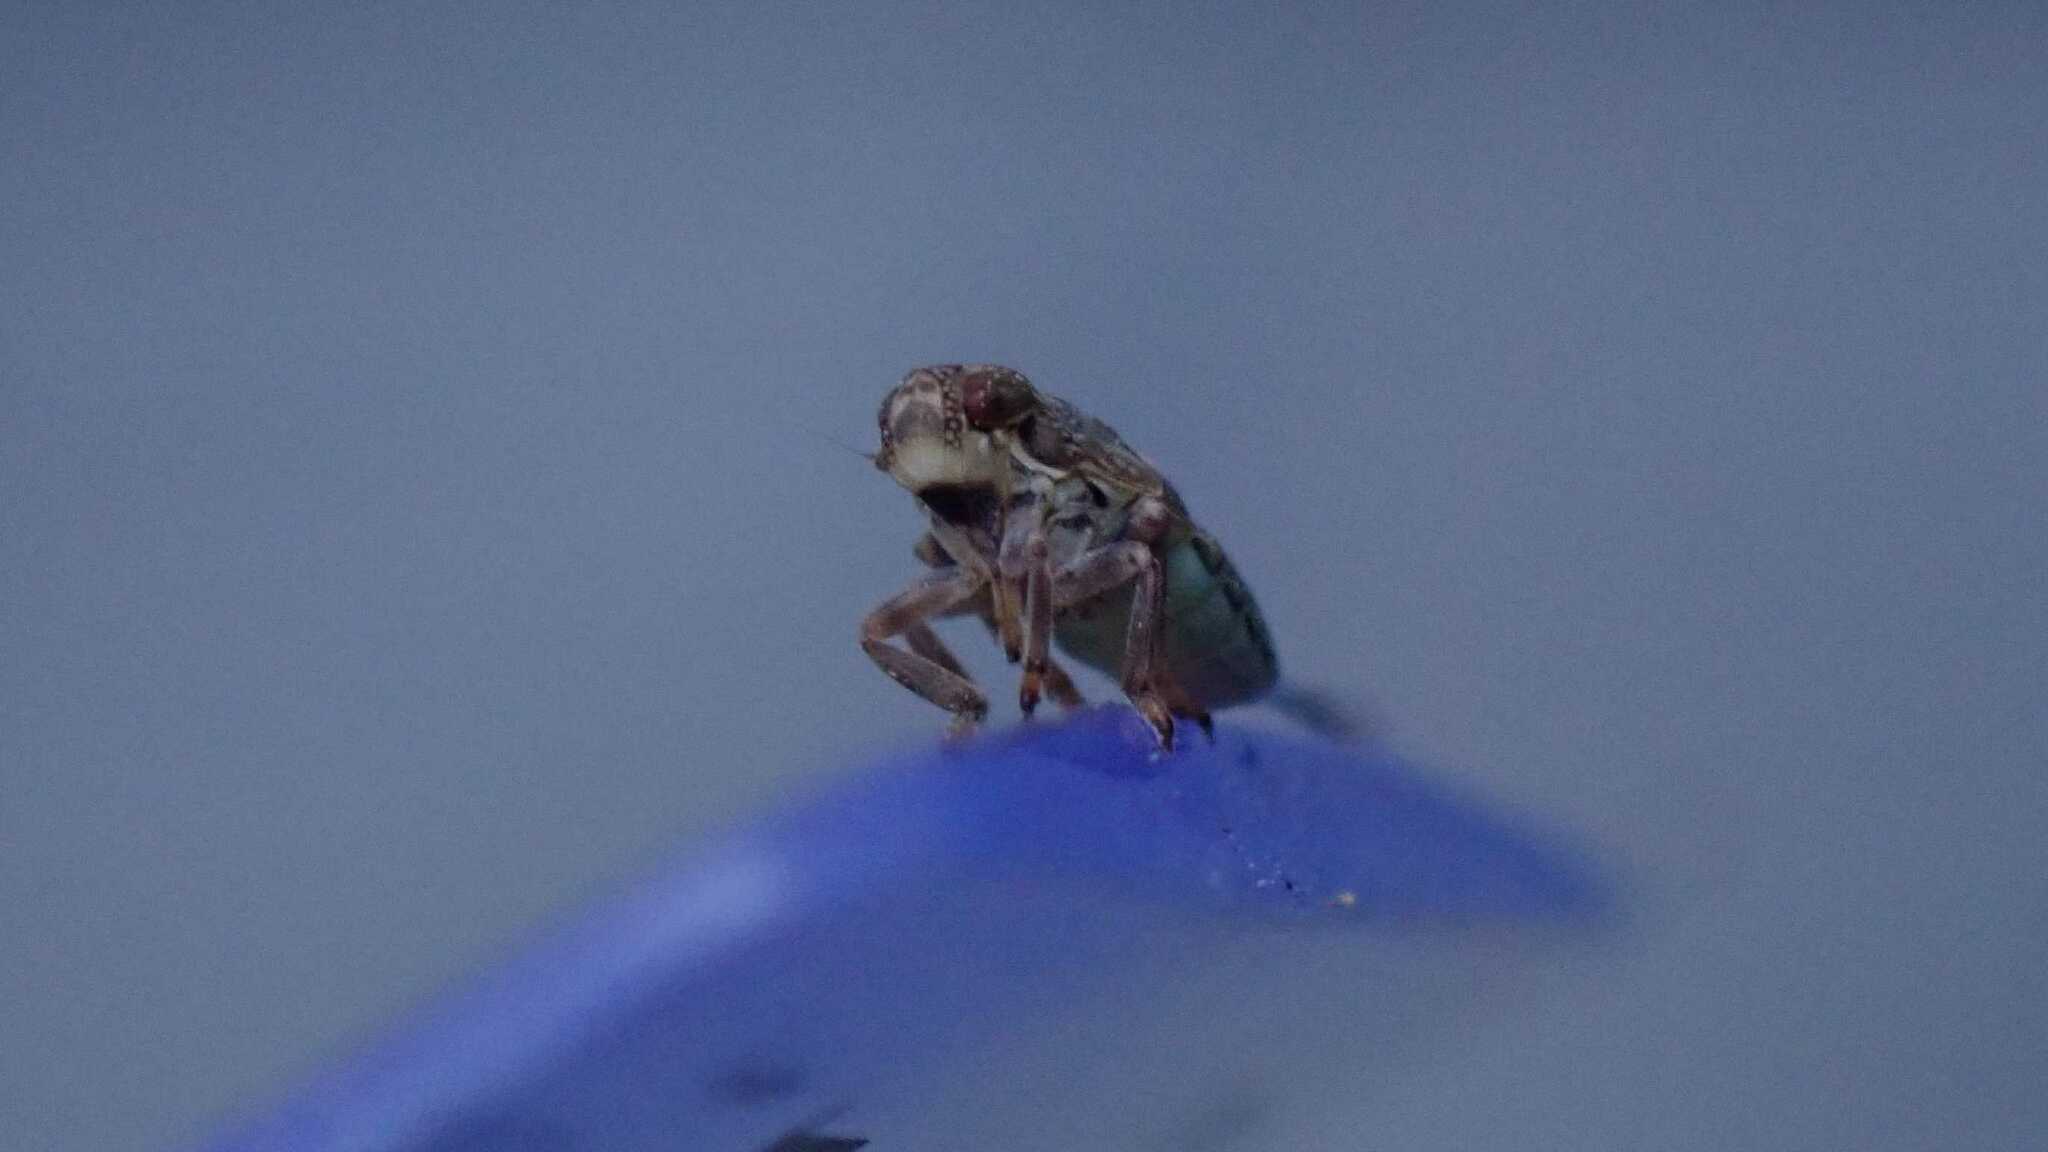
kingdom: Animalia
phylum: Arthropoda
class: Insecta
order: Hemiptera
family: Issidae
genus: Issus
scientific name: Issus coleoptratus
